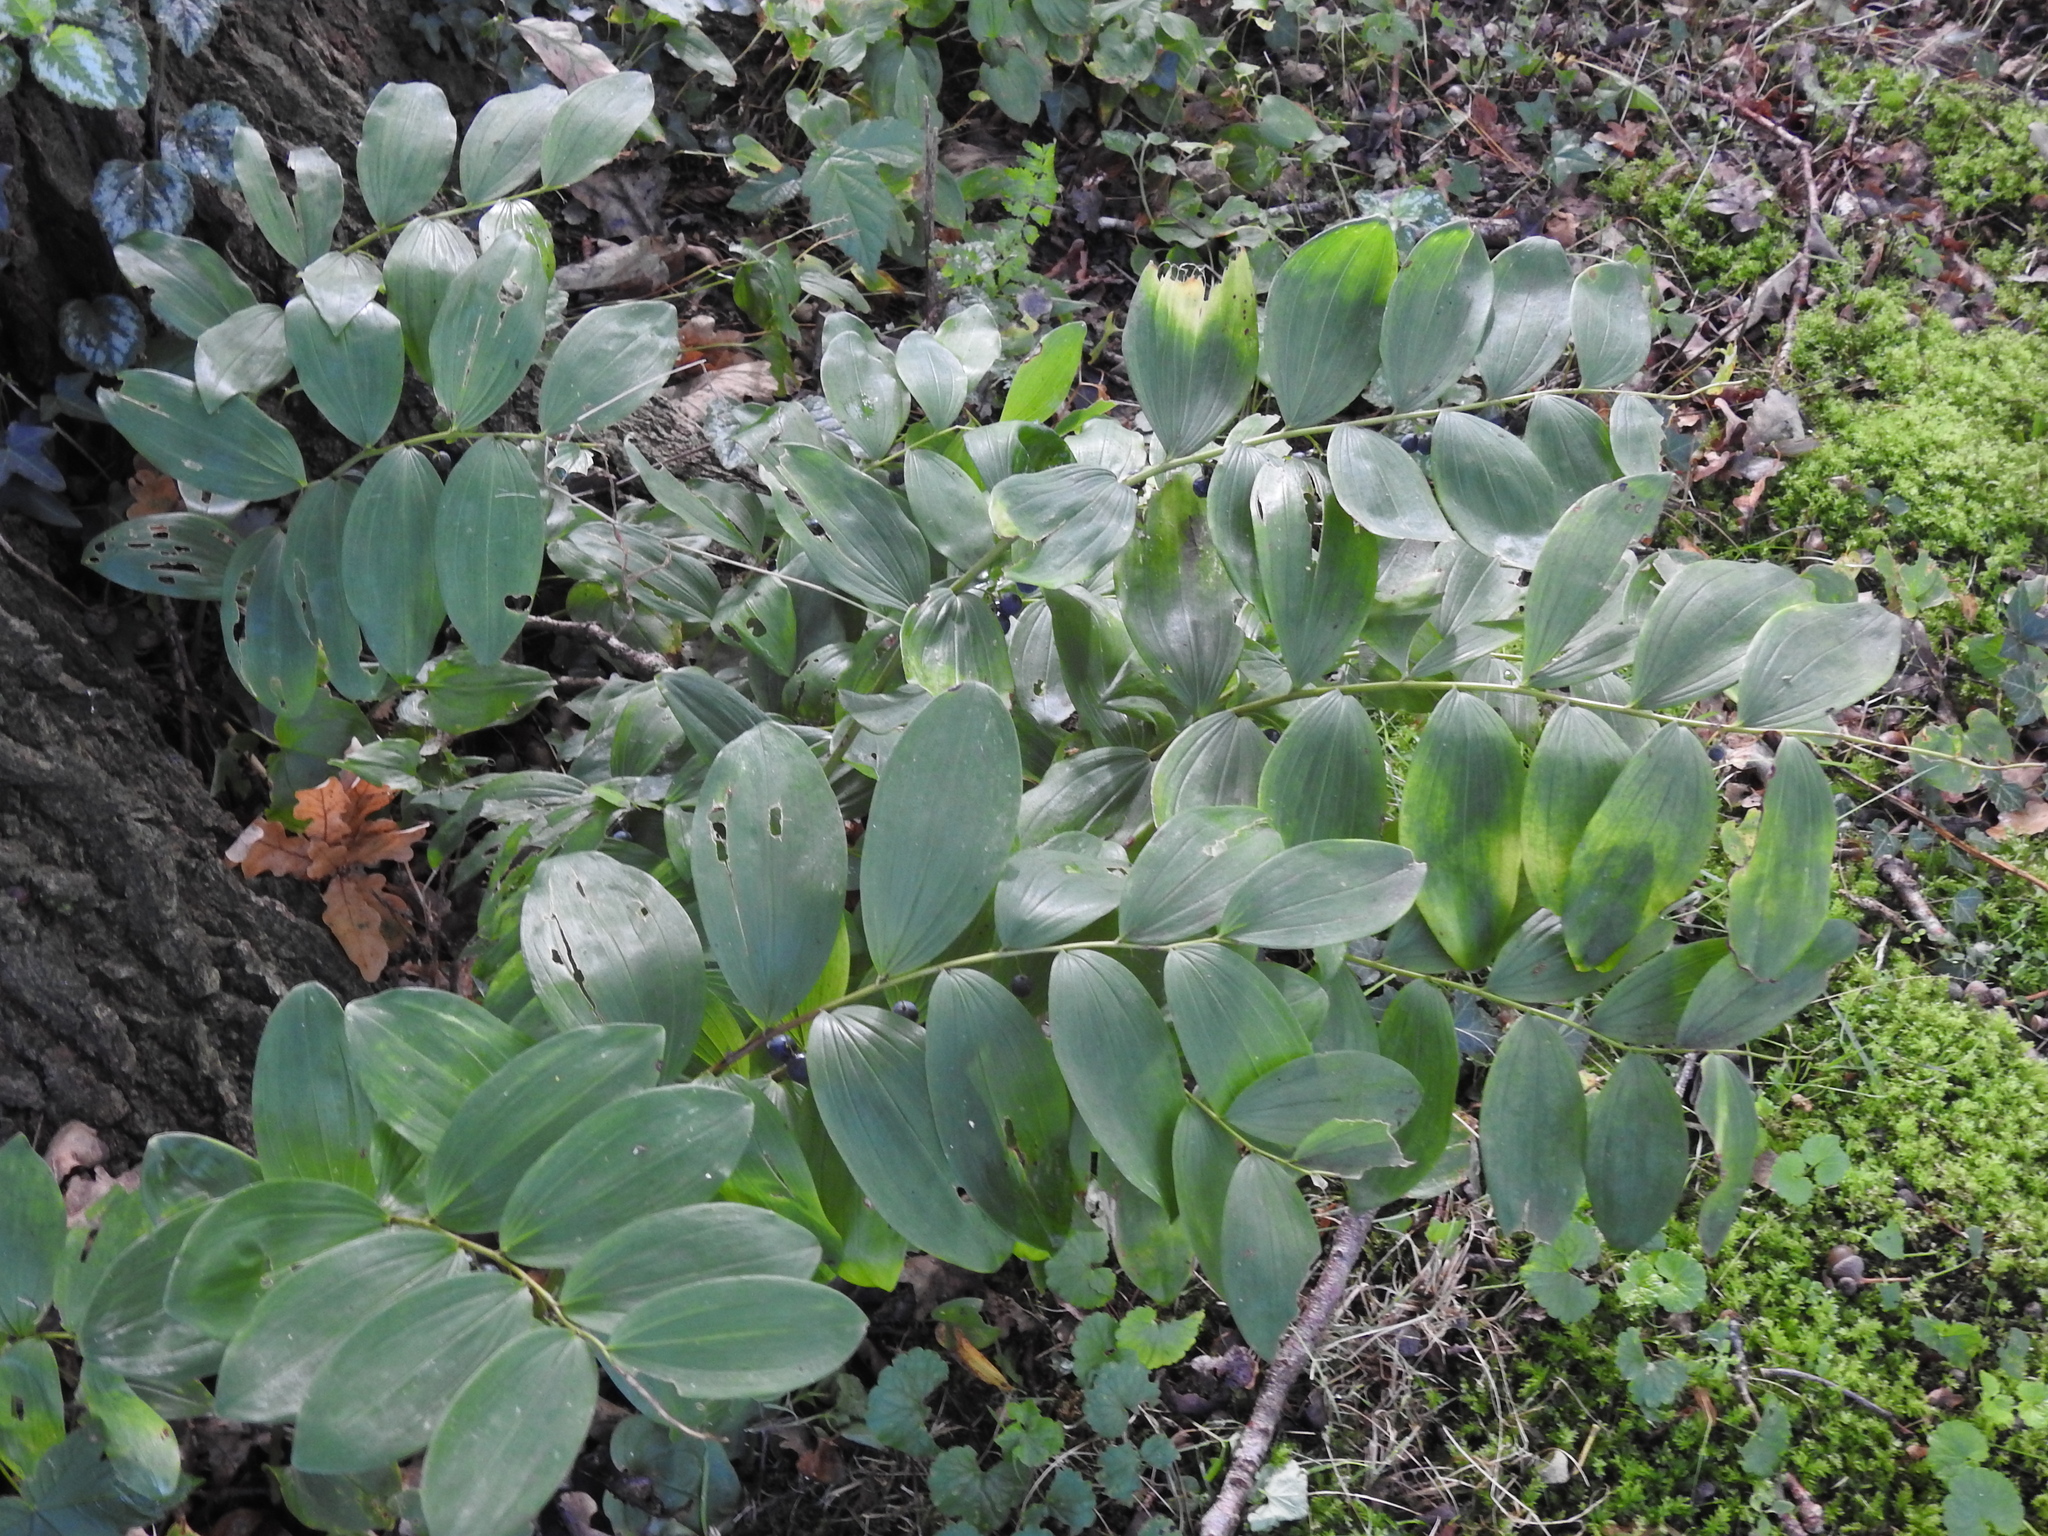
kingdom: Plantae
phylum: Tracheophyta
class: Liliopsida
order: Asparagales
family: Asparagaceae
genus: Polygonatum
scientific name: Polygonatum multiflorum
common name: Solomon's-seal
